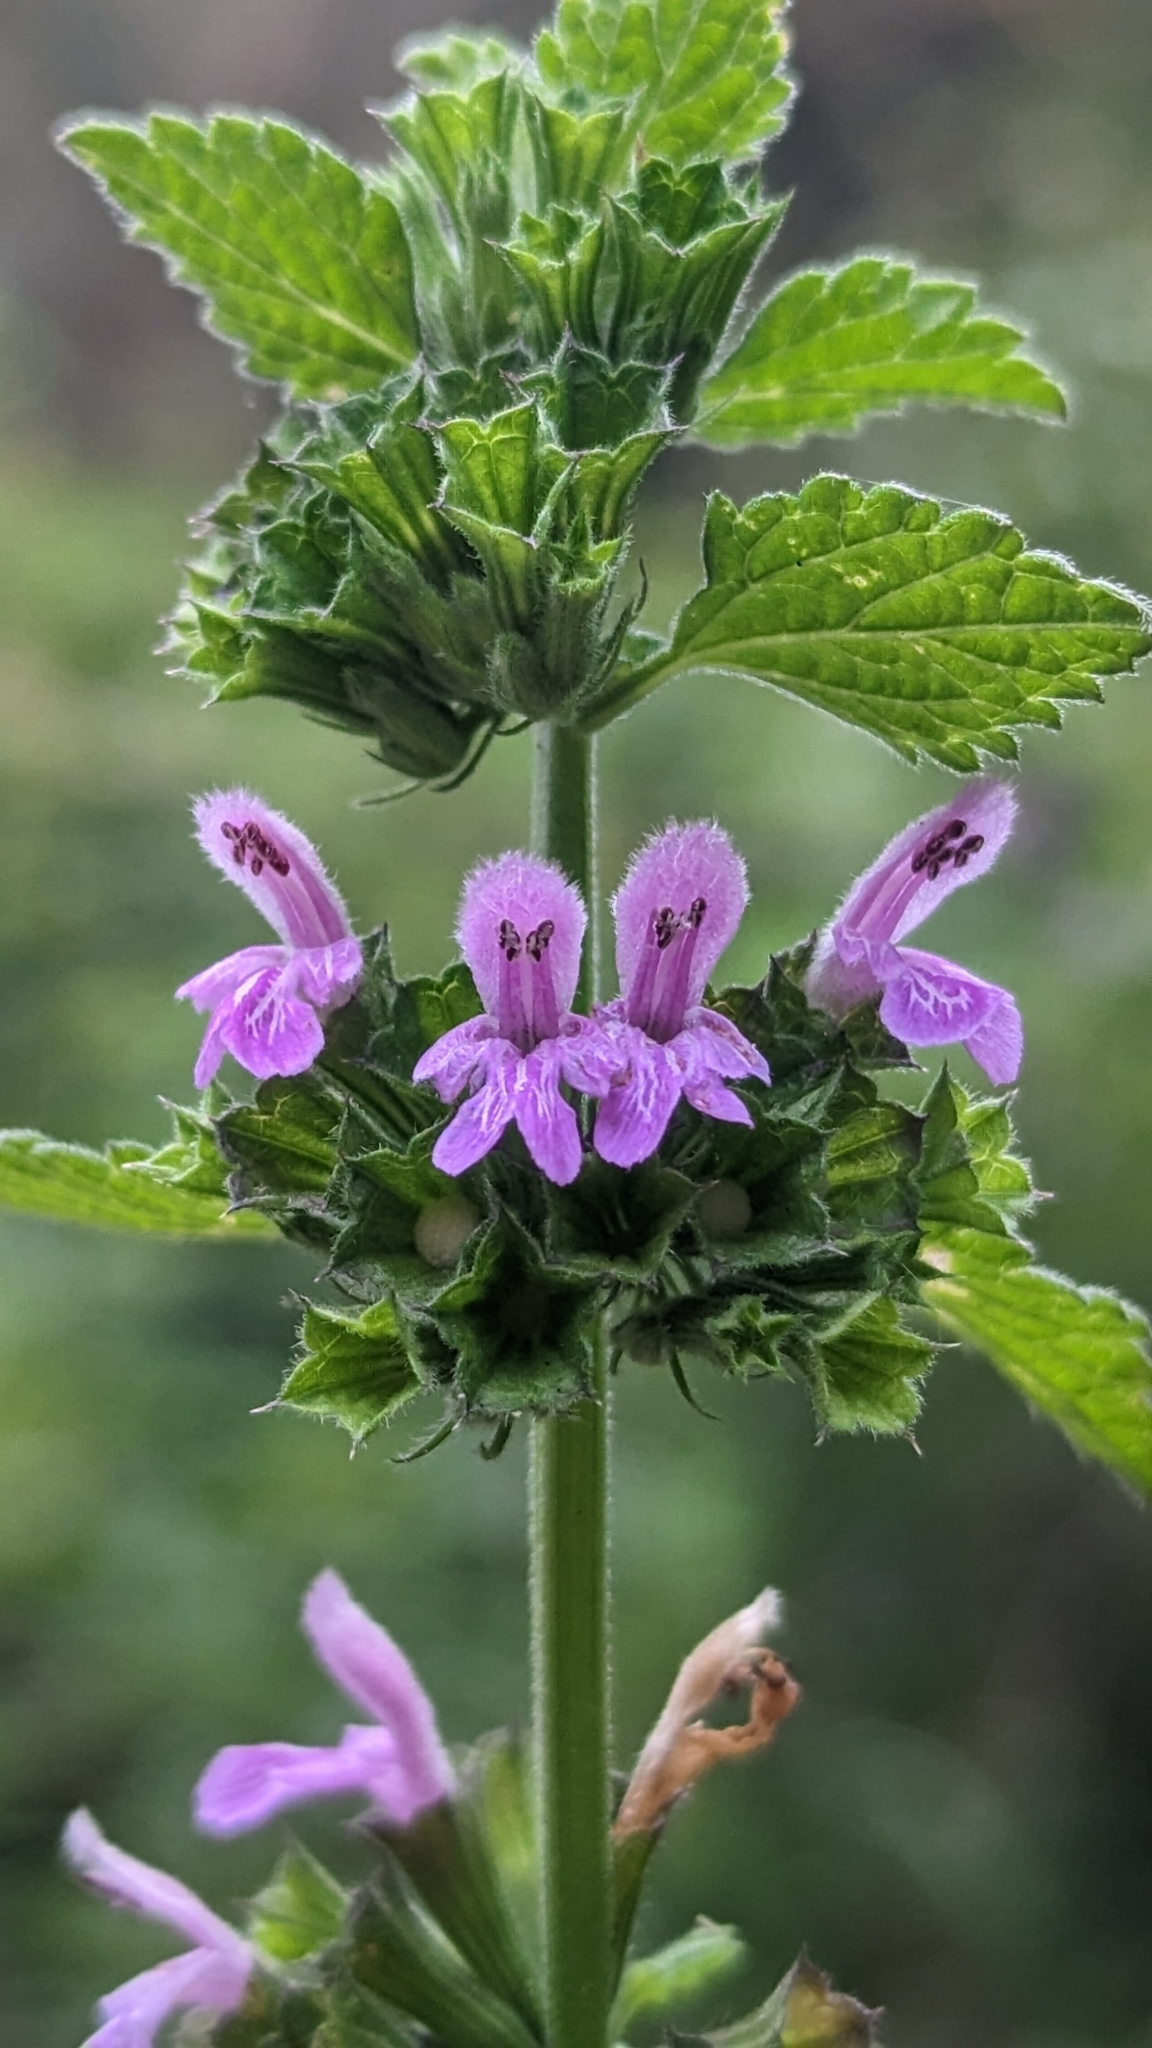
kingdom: Plantae
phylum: Tracheophyta
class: Magnoliopsida
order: Lamiales
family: Lamiaceae
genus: Ballota
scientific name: Ballota nigra
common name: Black horehound
